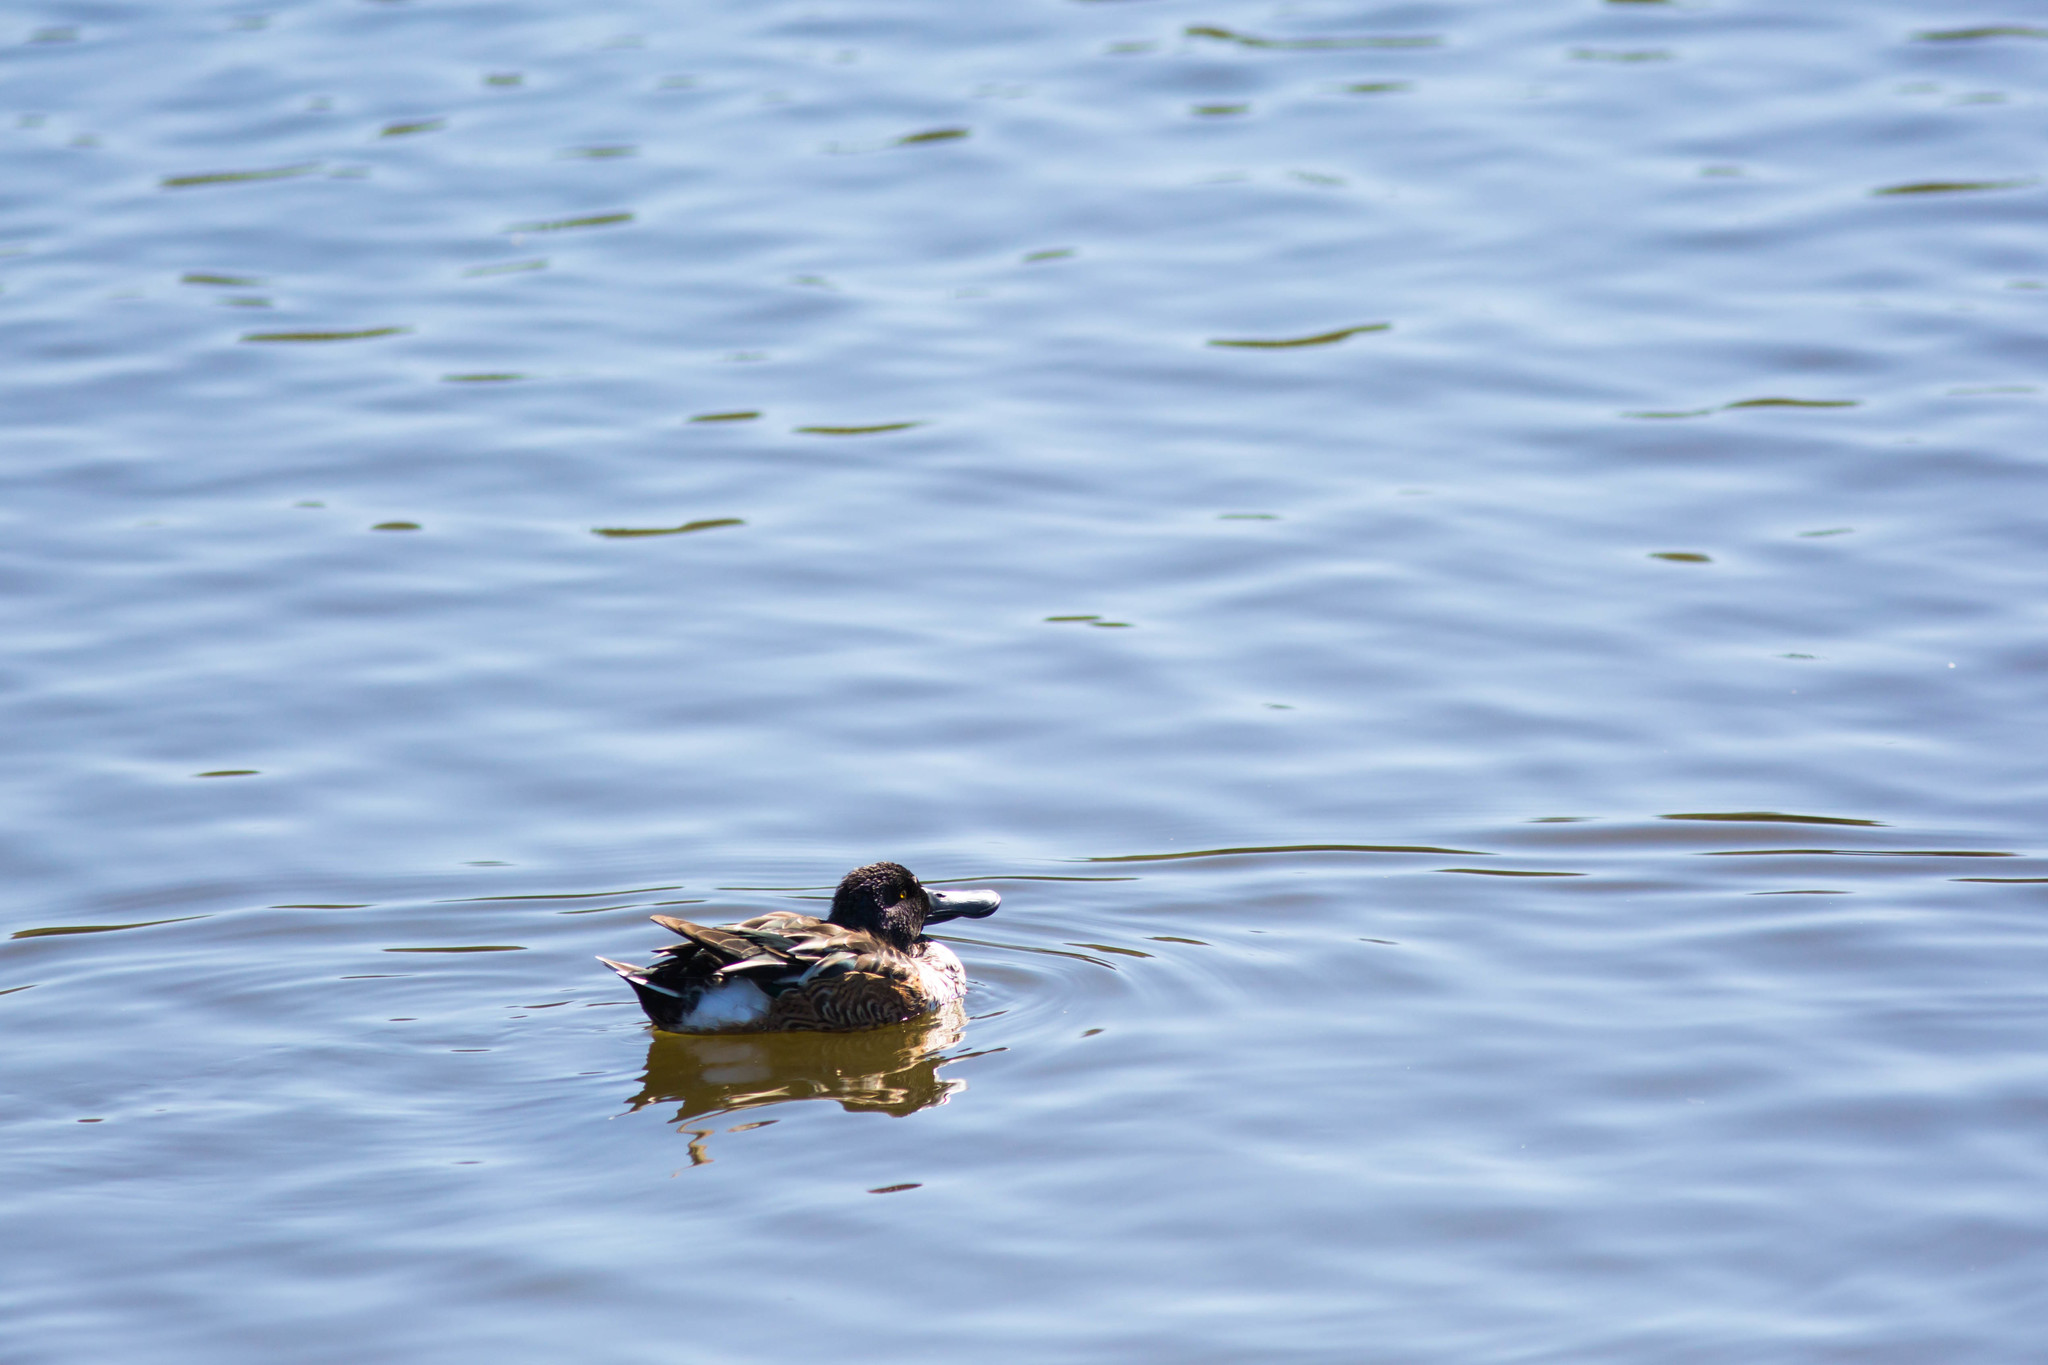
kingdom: Animalia
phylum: Chordata
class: Aves
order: Anseriformes
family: Anatidae
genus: Spatula
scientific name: Spatula clypeata
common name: Northern shoveler
